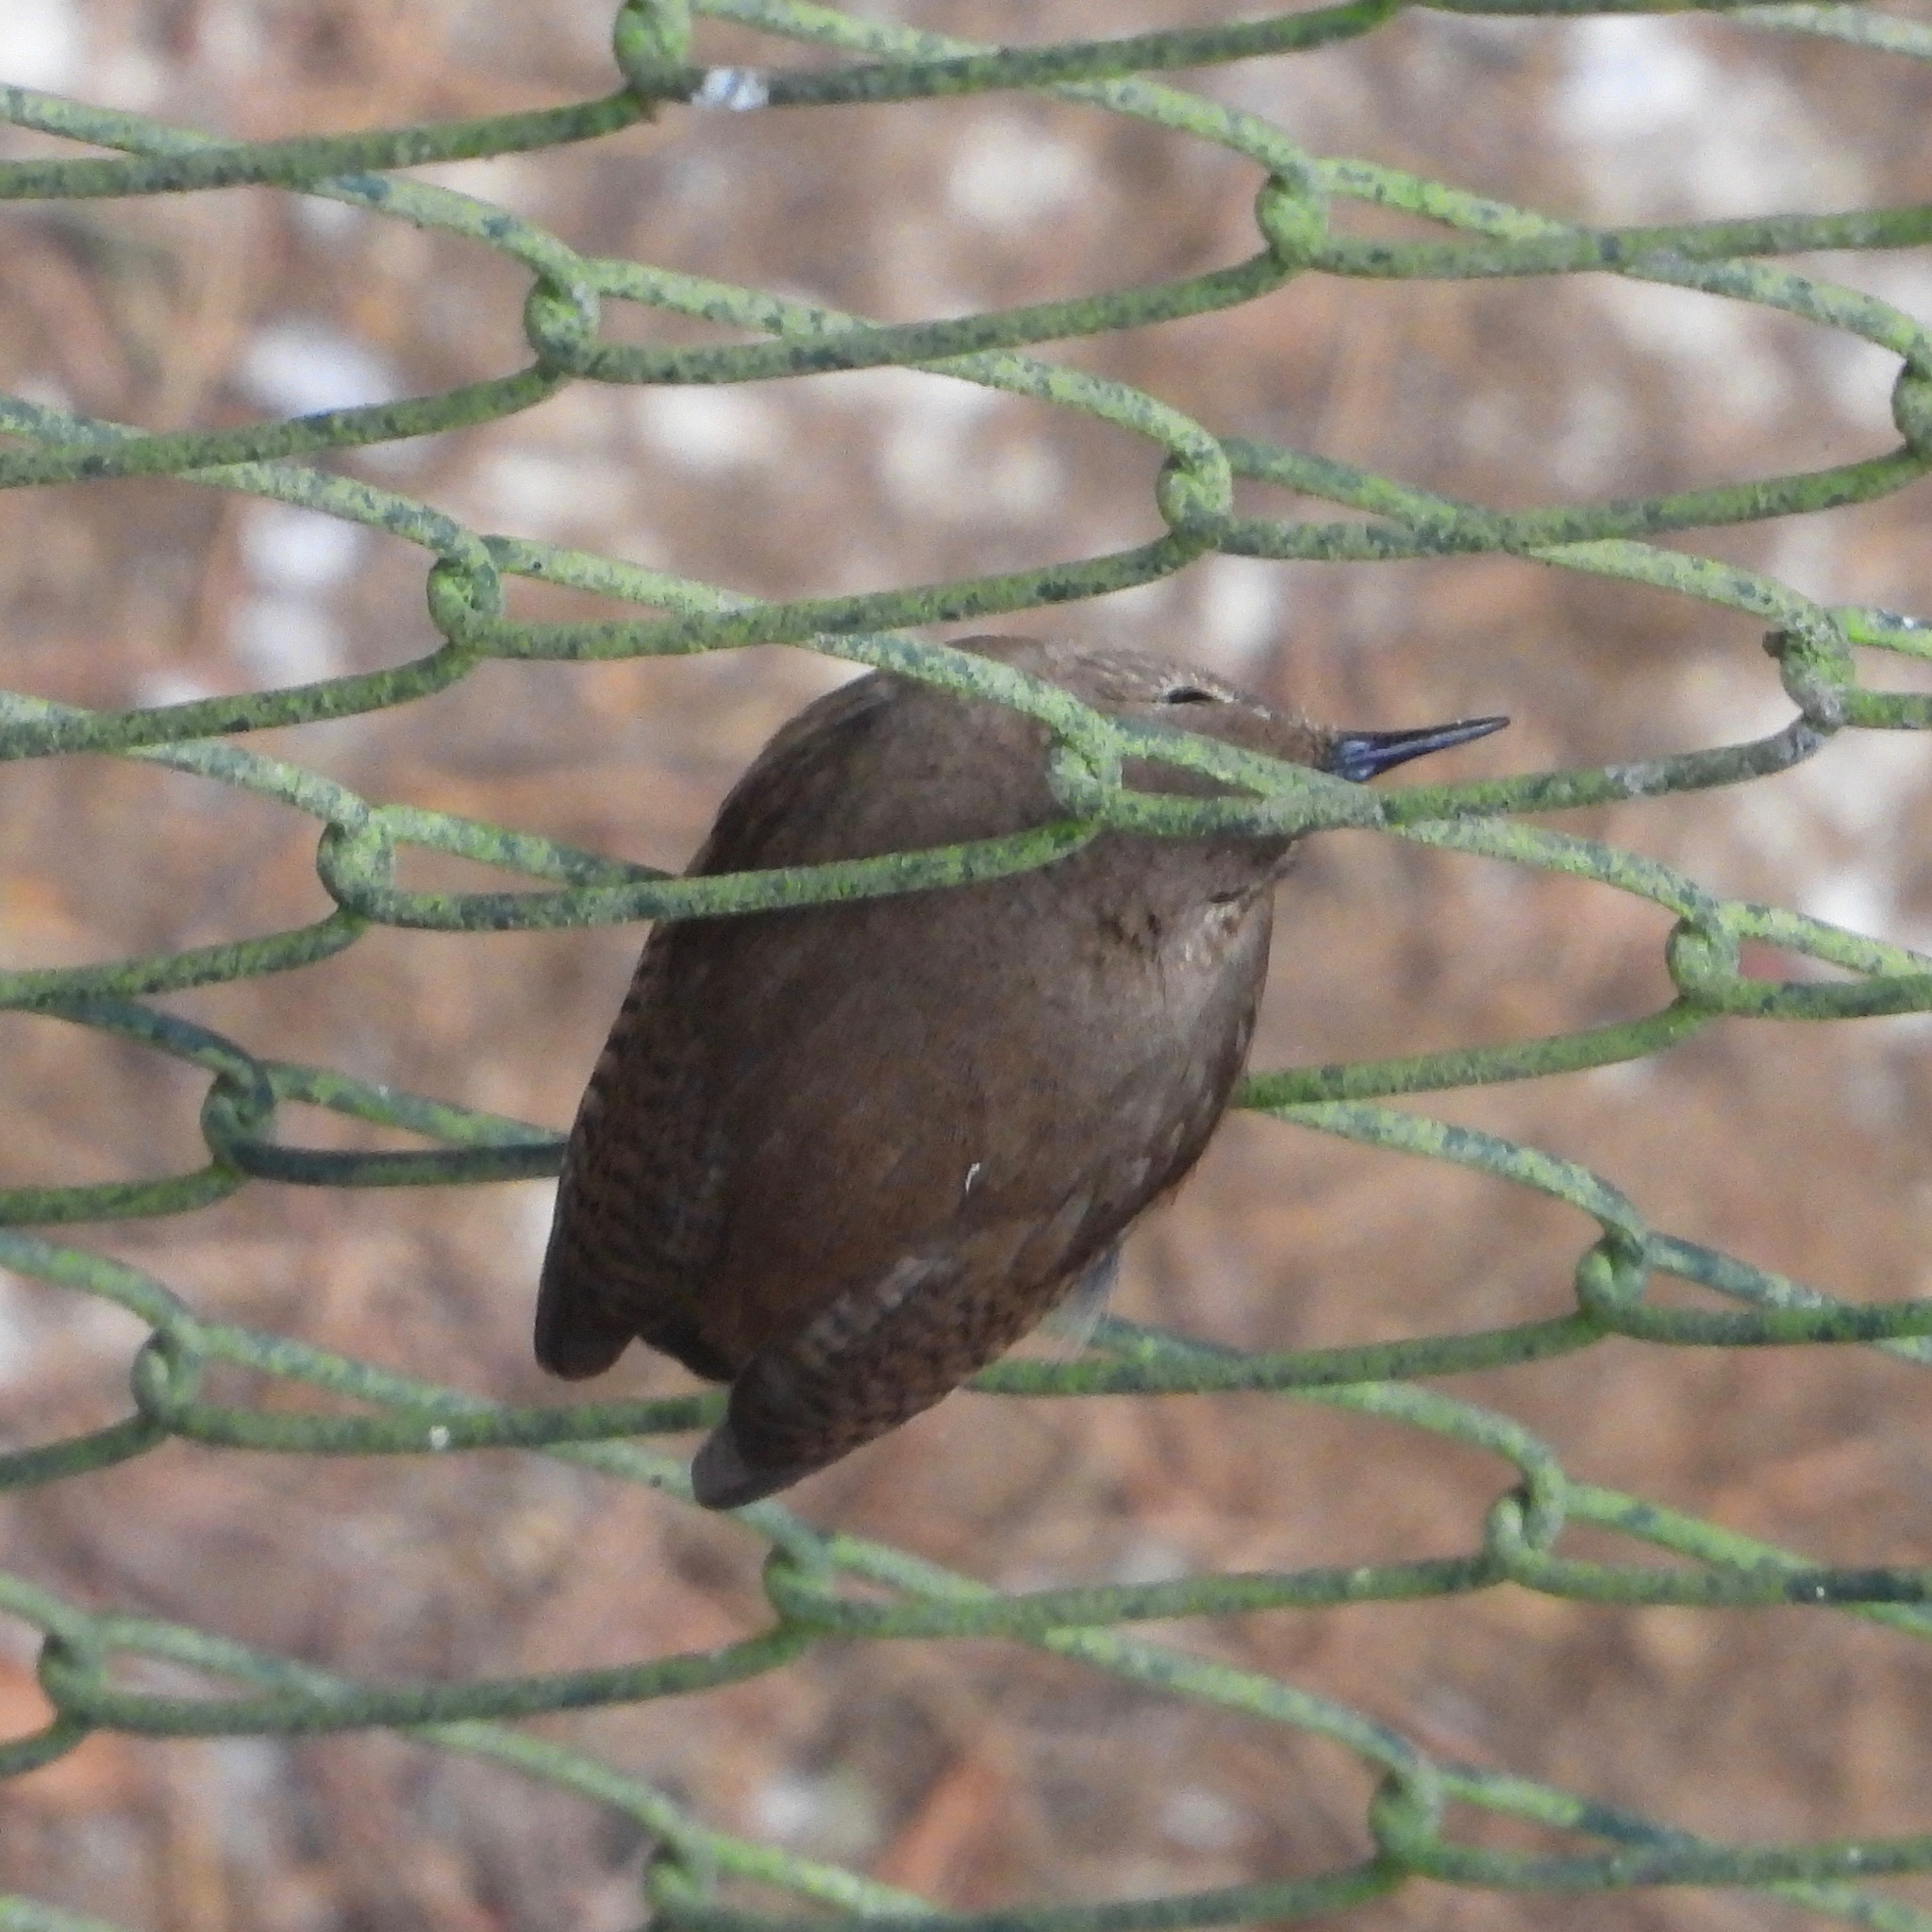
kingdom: Animalia
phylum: Chordata
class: Aves
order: Passeriformes
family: Troglodytidae
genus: Troglodytes
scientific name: Troglodytes aedon
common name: House wren
